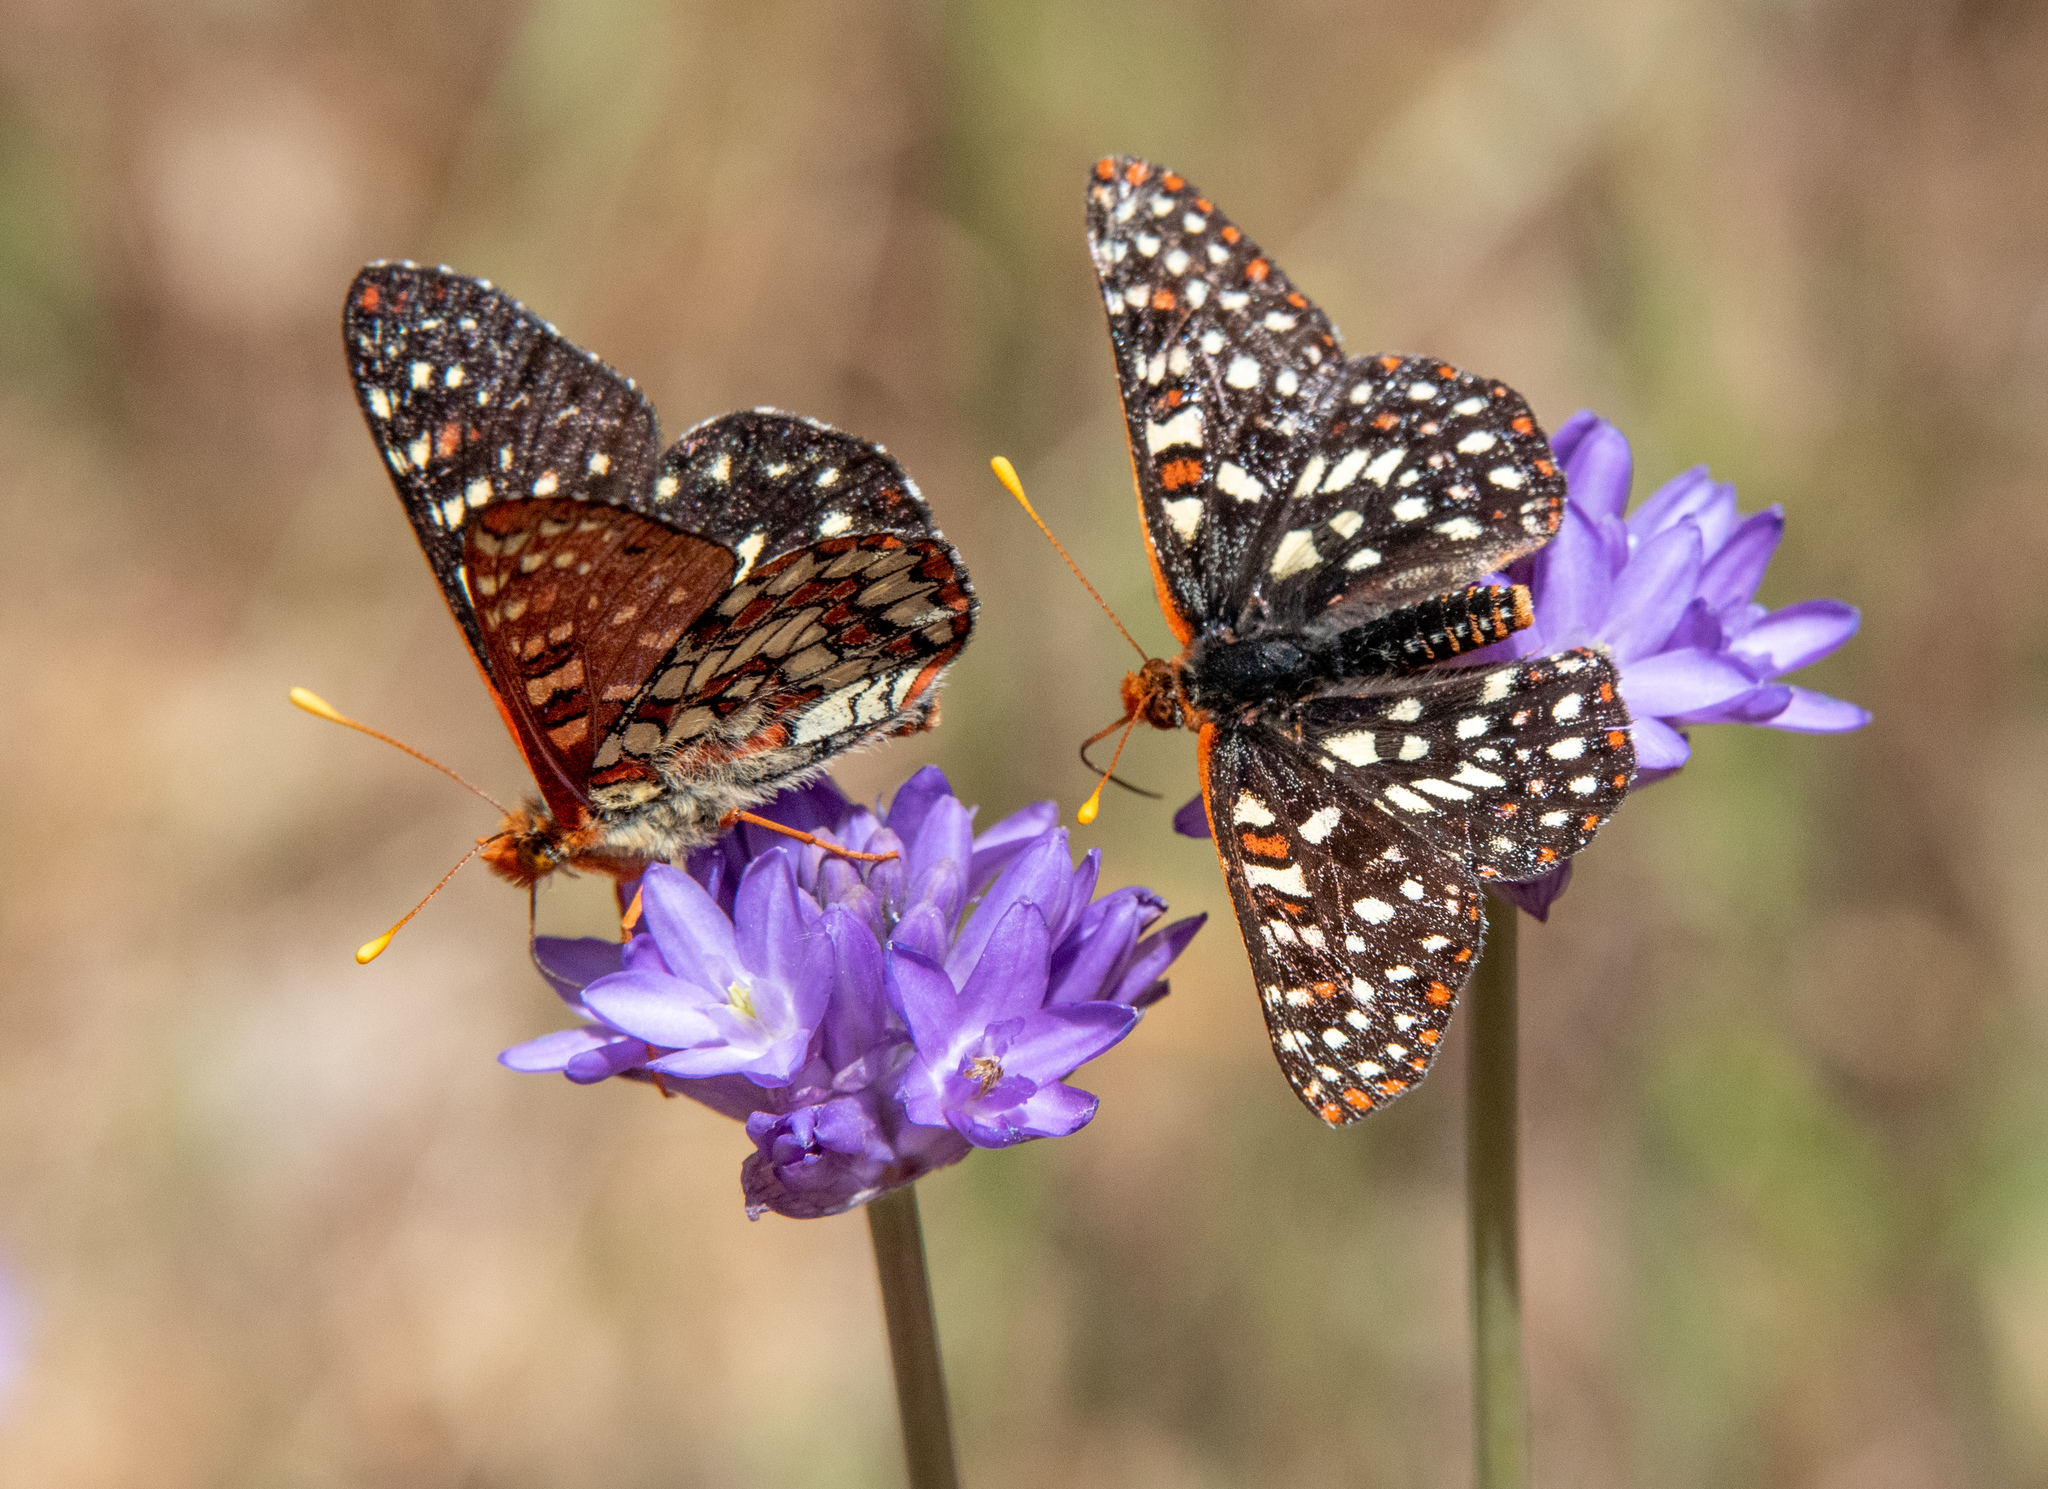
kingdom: Animalia
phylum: Arthropoda
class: Insecta
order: Lepidoptera
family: Nymphalidae
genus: Occidryas
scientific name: Occidryas chalcedona
